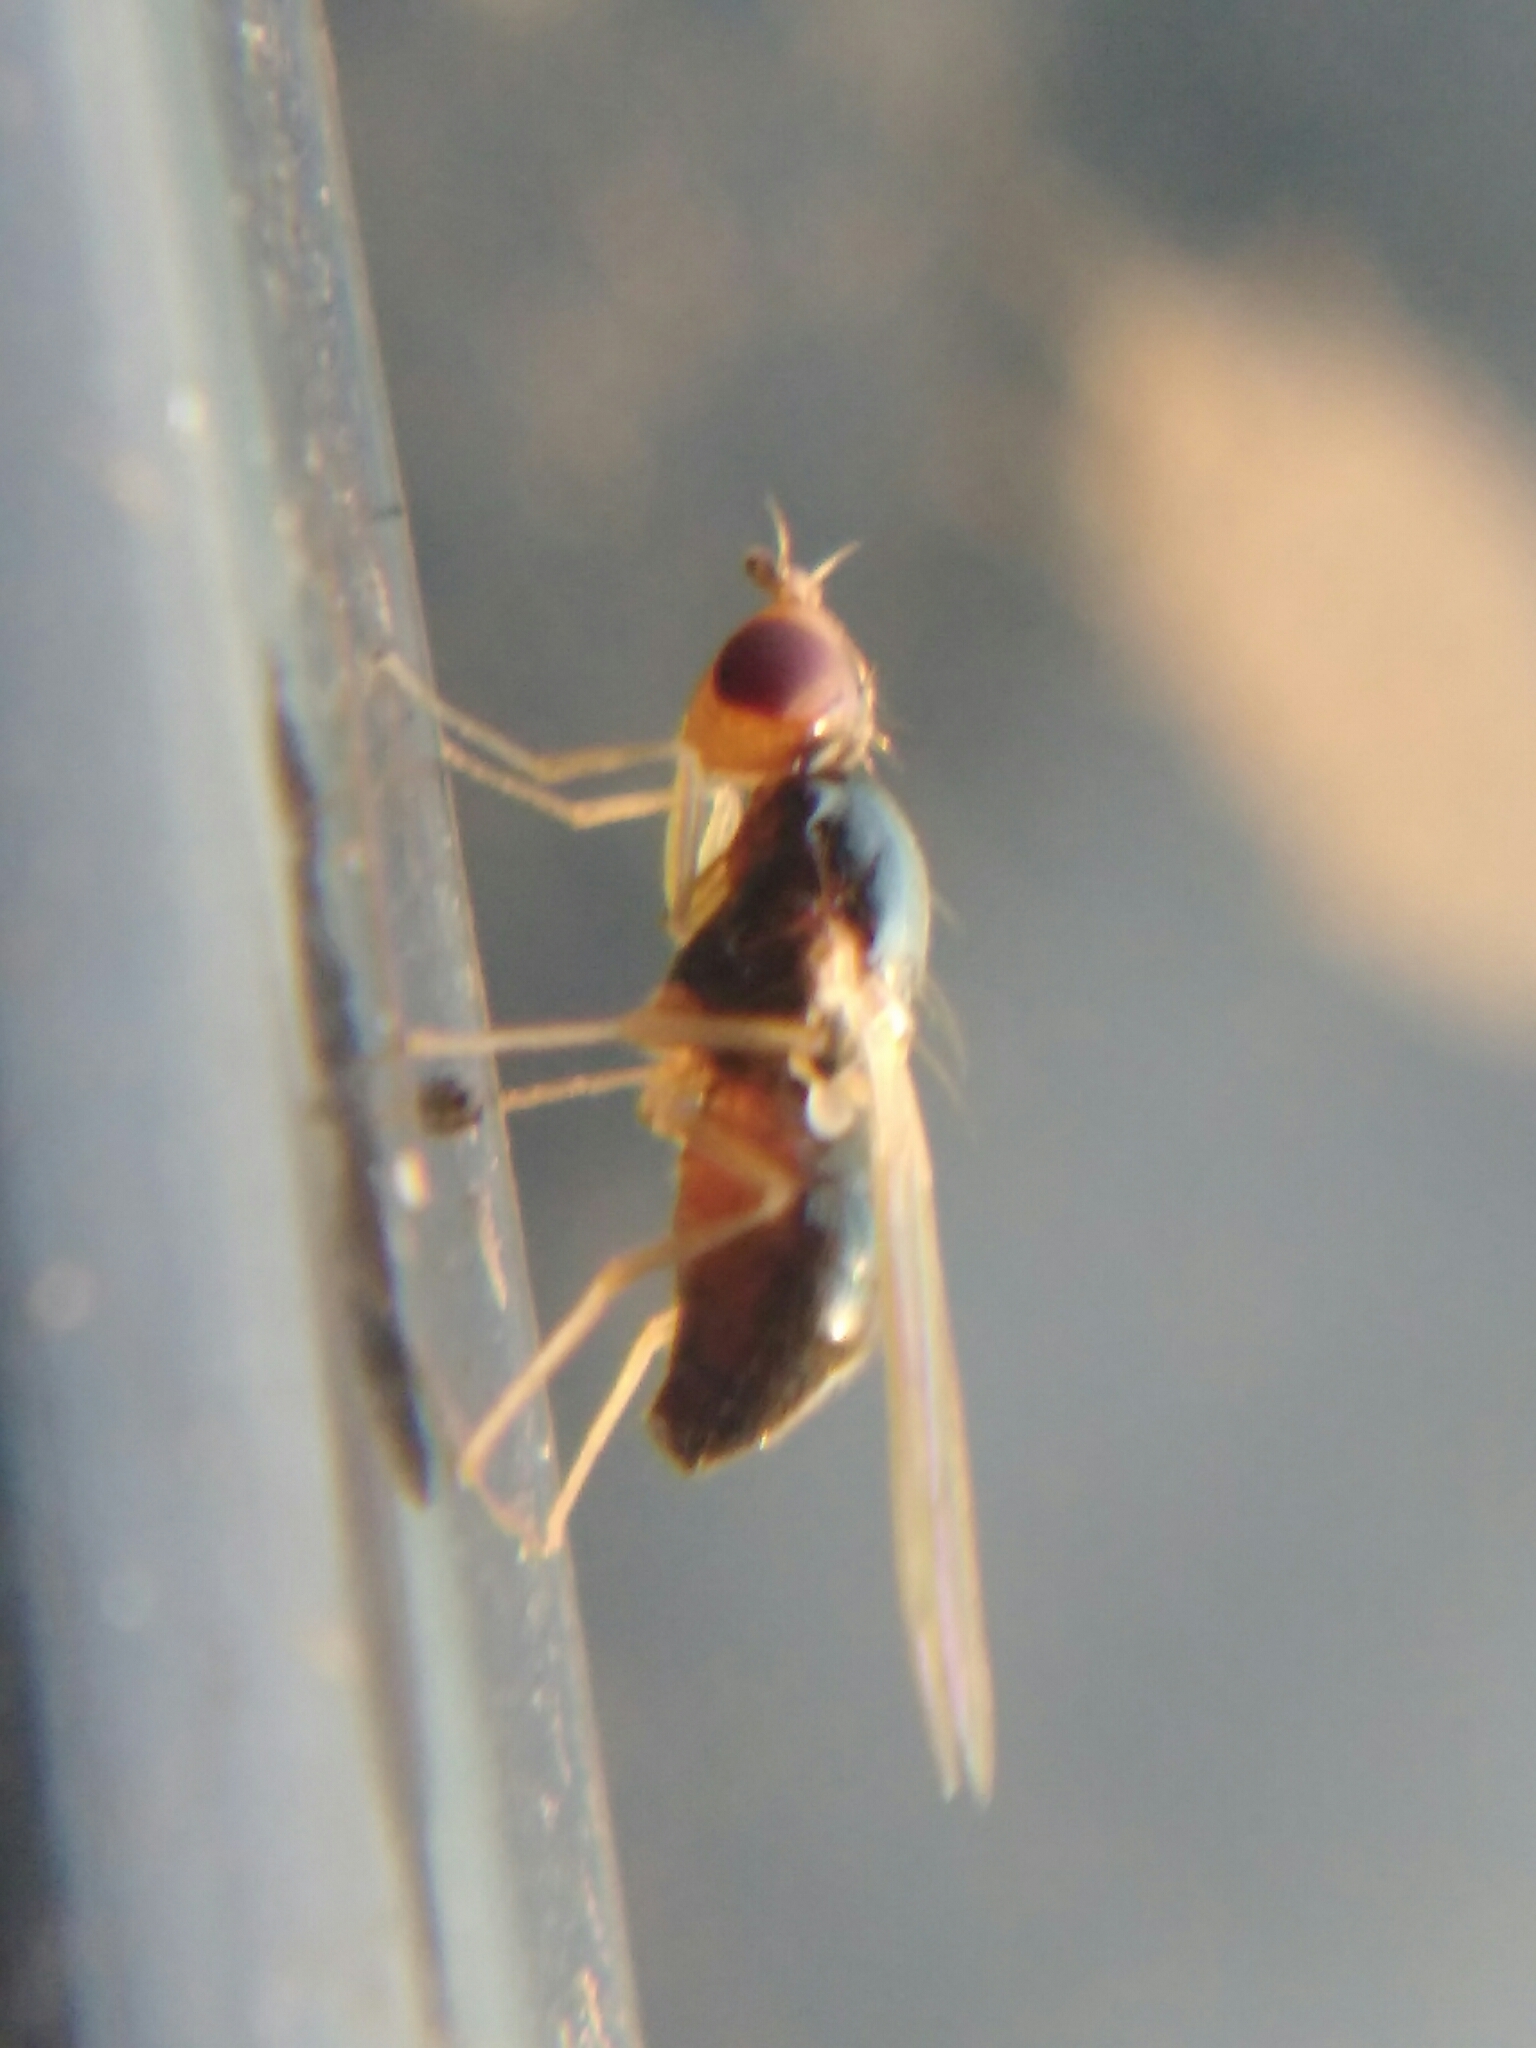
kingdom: Animalia
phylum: Arthropoda
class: Insecta
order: Diptera
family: Psilidae
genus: Psila
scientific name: Psila persimilis
